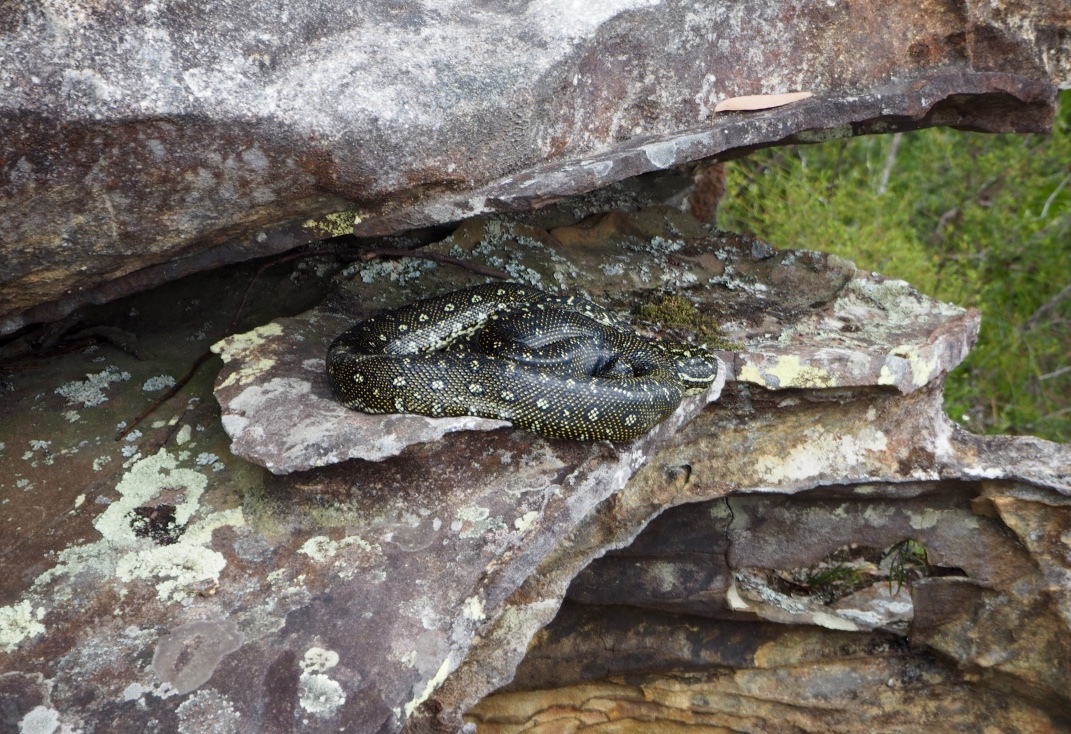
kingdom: Animalia
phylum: Chordata
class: Squamata
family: Pythonidae
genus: Morelia
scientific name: Morelia spilota
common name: Carpet python
